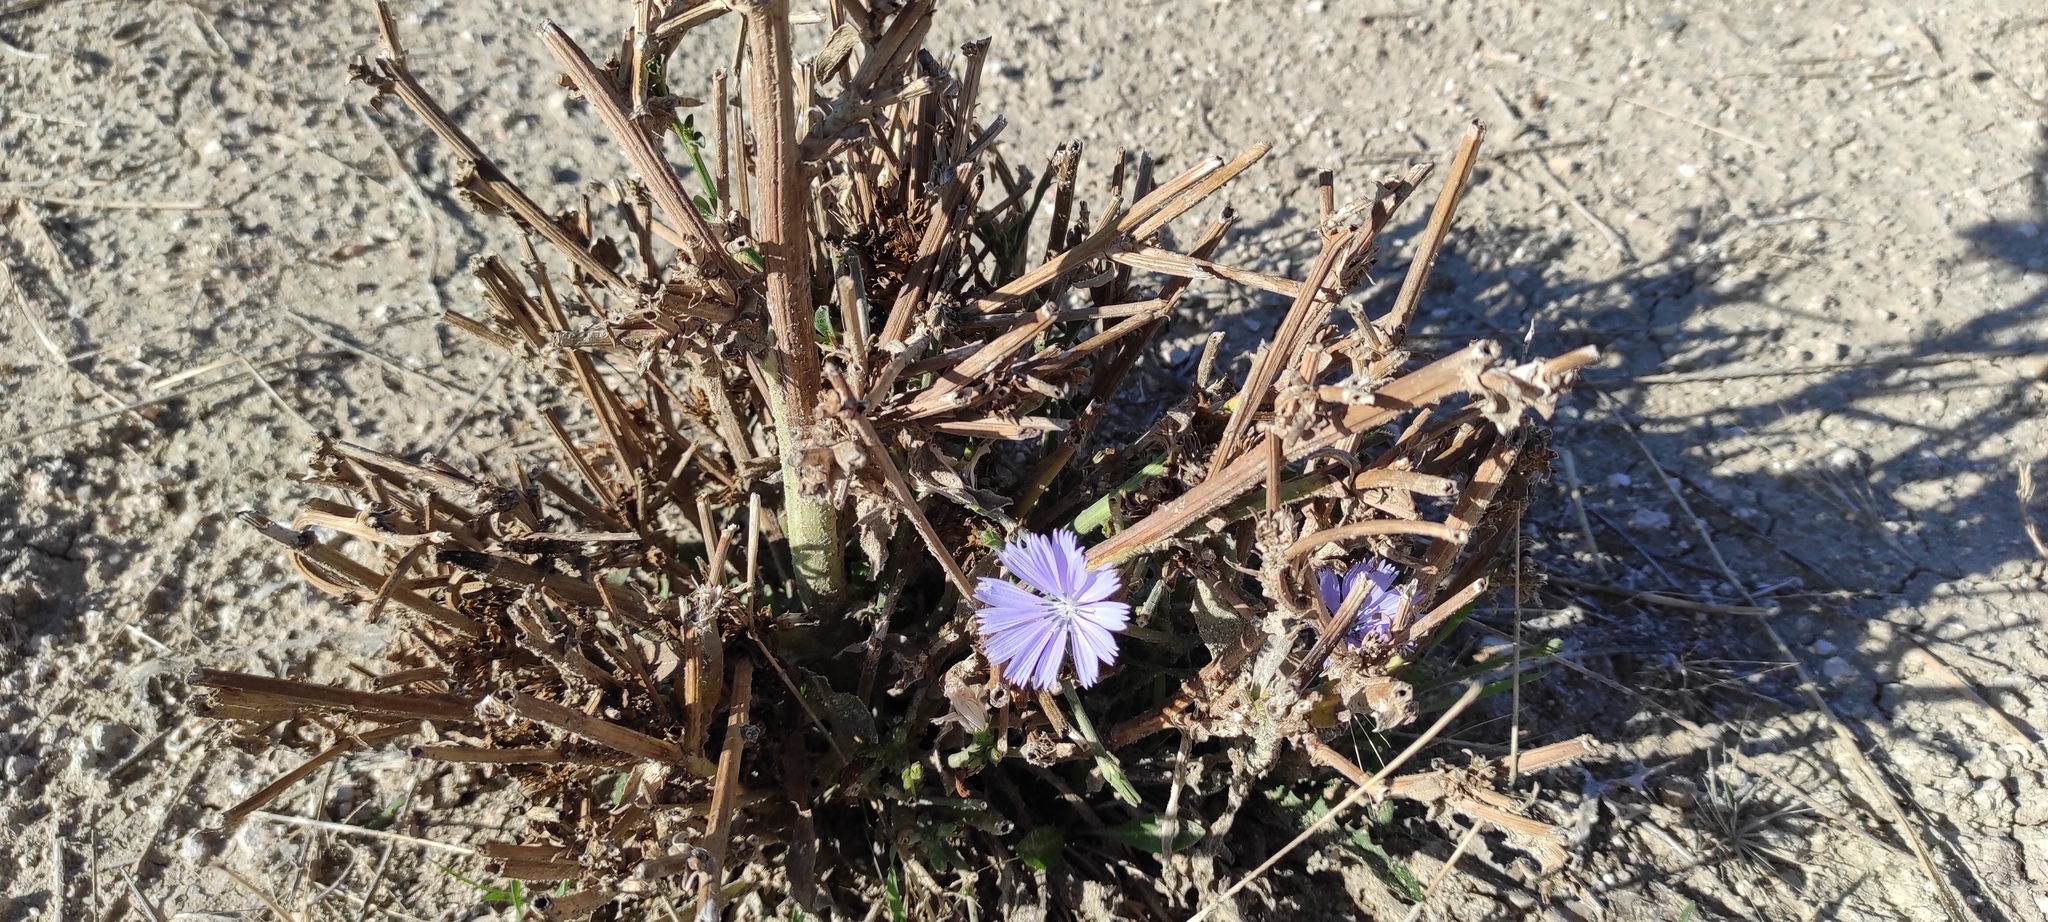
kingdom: Plantae
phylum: Tracheophyta
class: Magnoliopsida
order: Asterales
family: Asteraceae
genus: Cichorium
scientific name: Cichorium intybus
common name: Chicory
